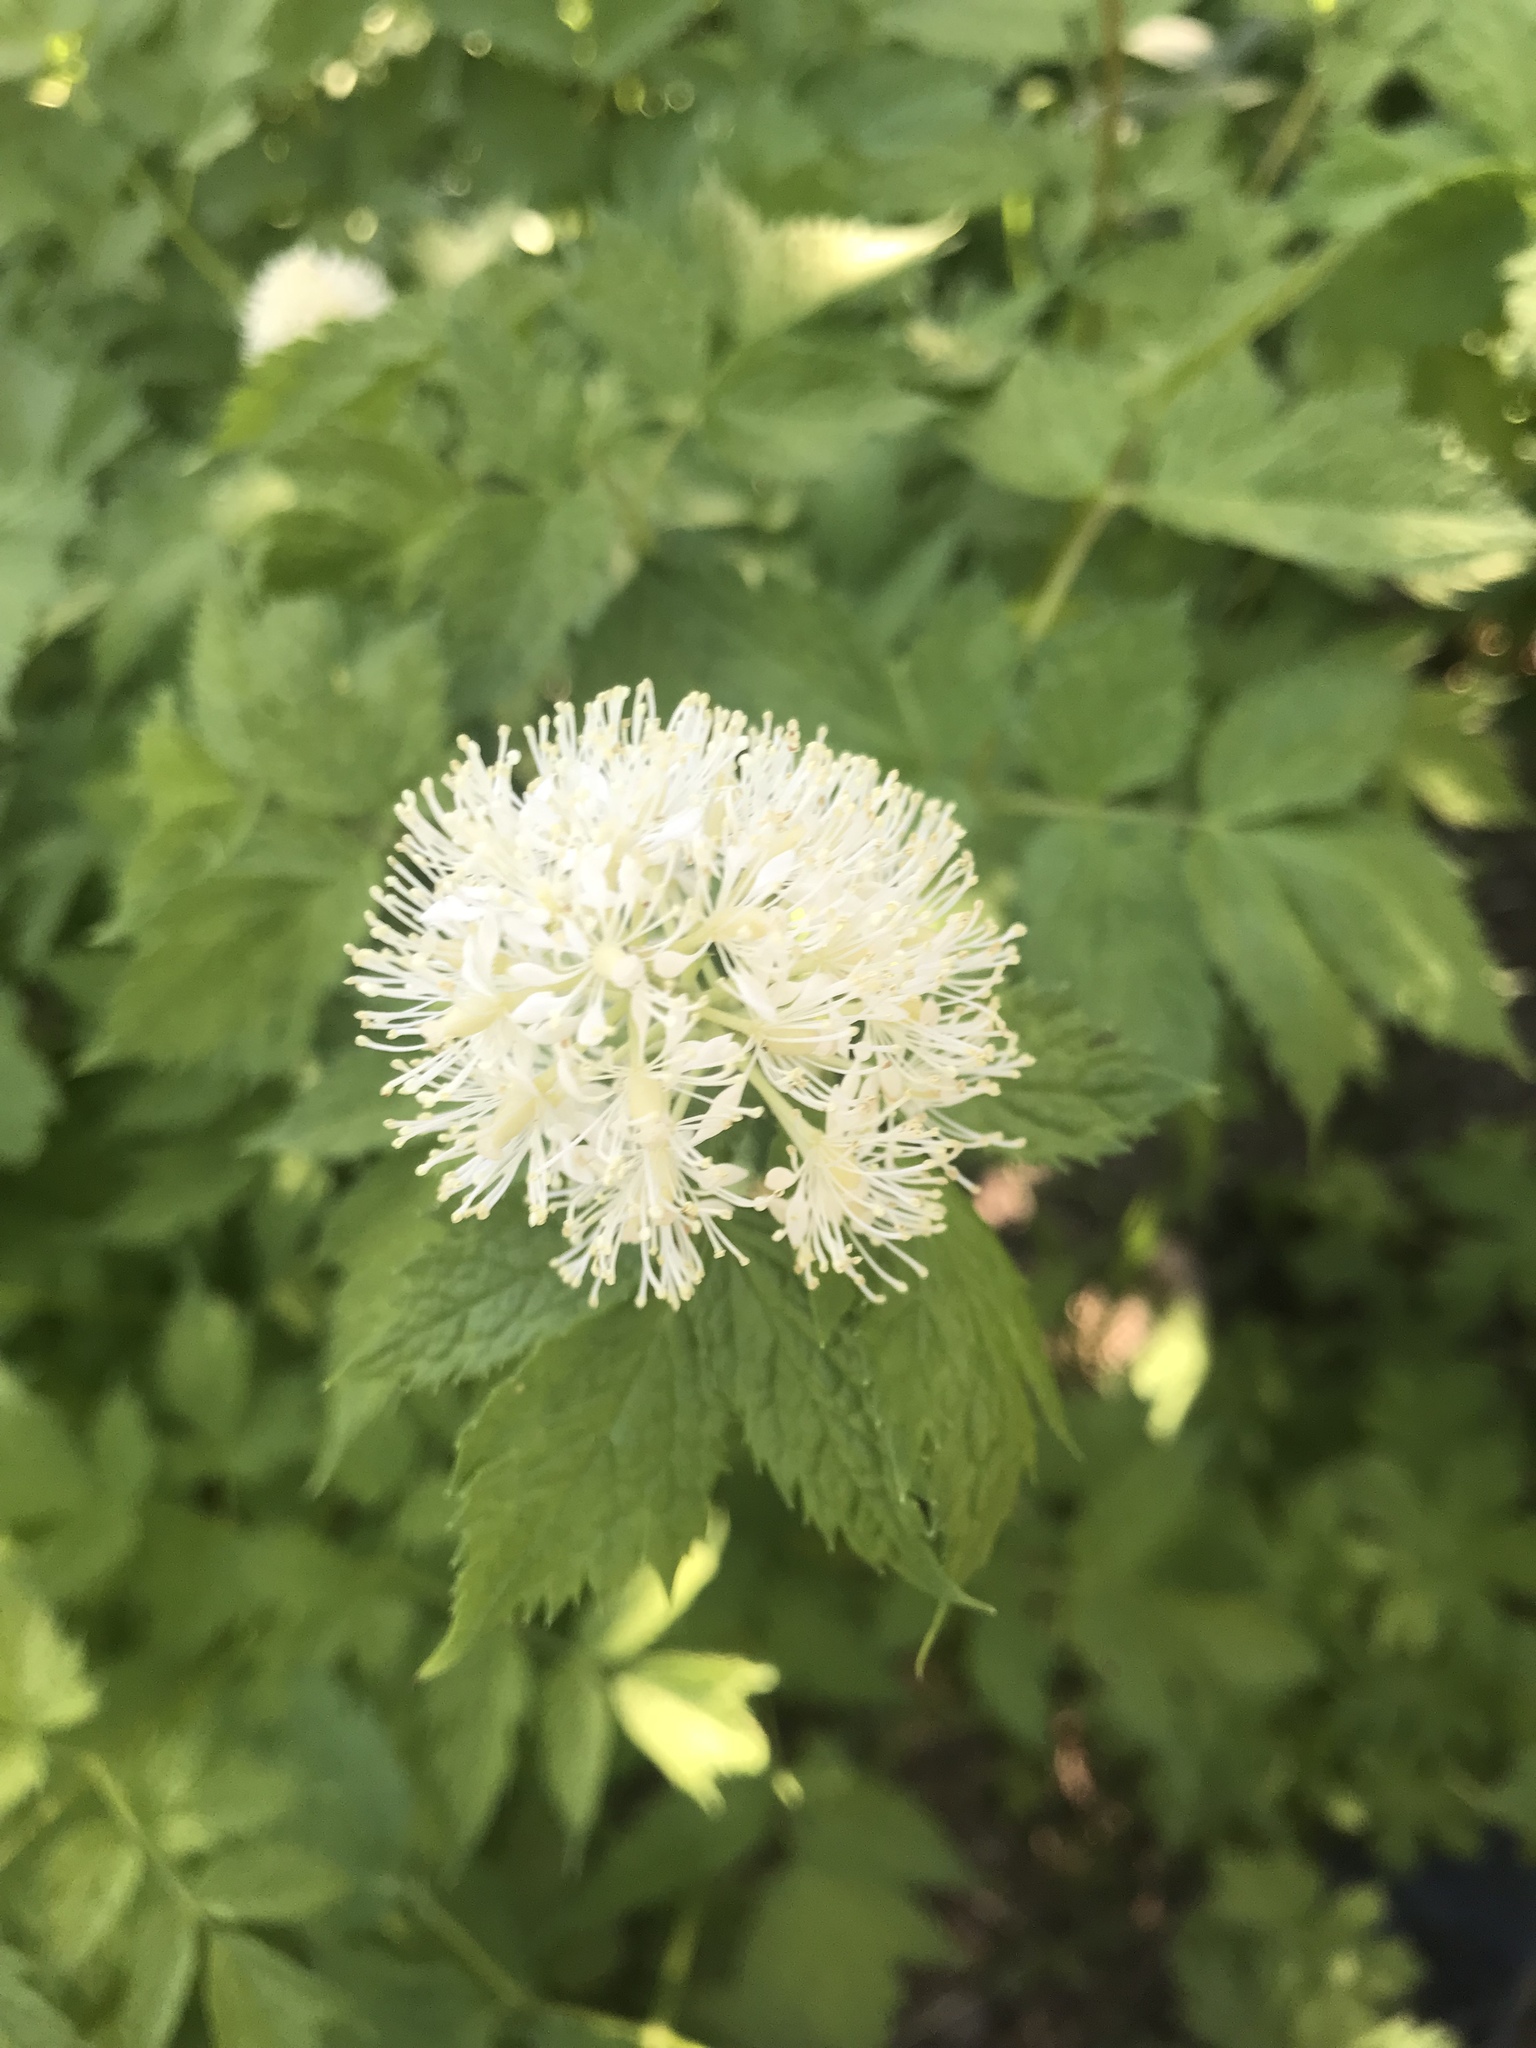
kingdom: Plantae
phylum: Tracheophyta
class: Magnoliopsida
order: Ranunculales
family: Ranunculaceae
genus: Actaea
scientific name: Actaea rubra
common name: Red baneberry
